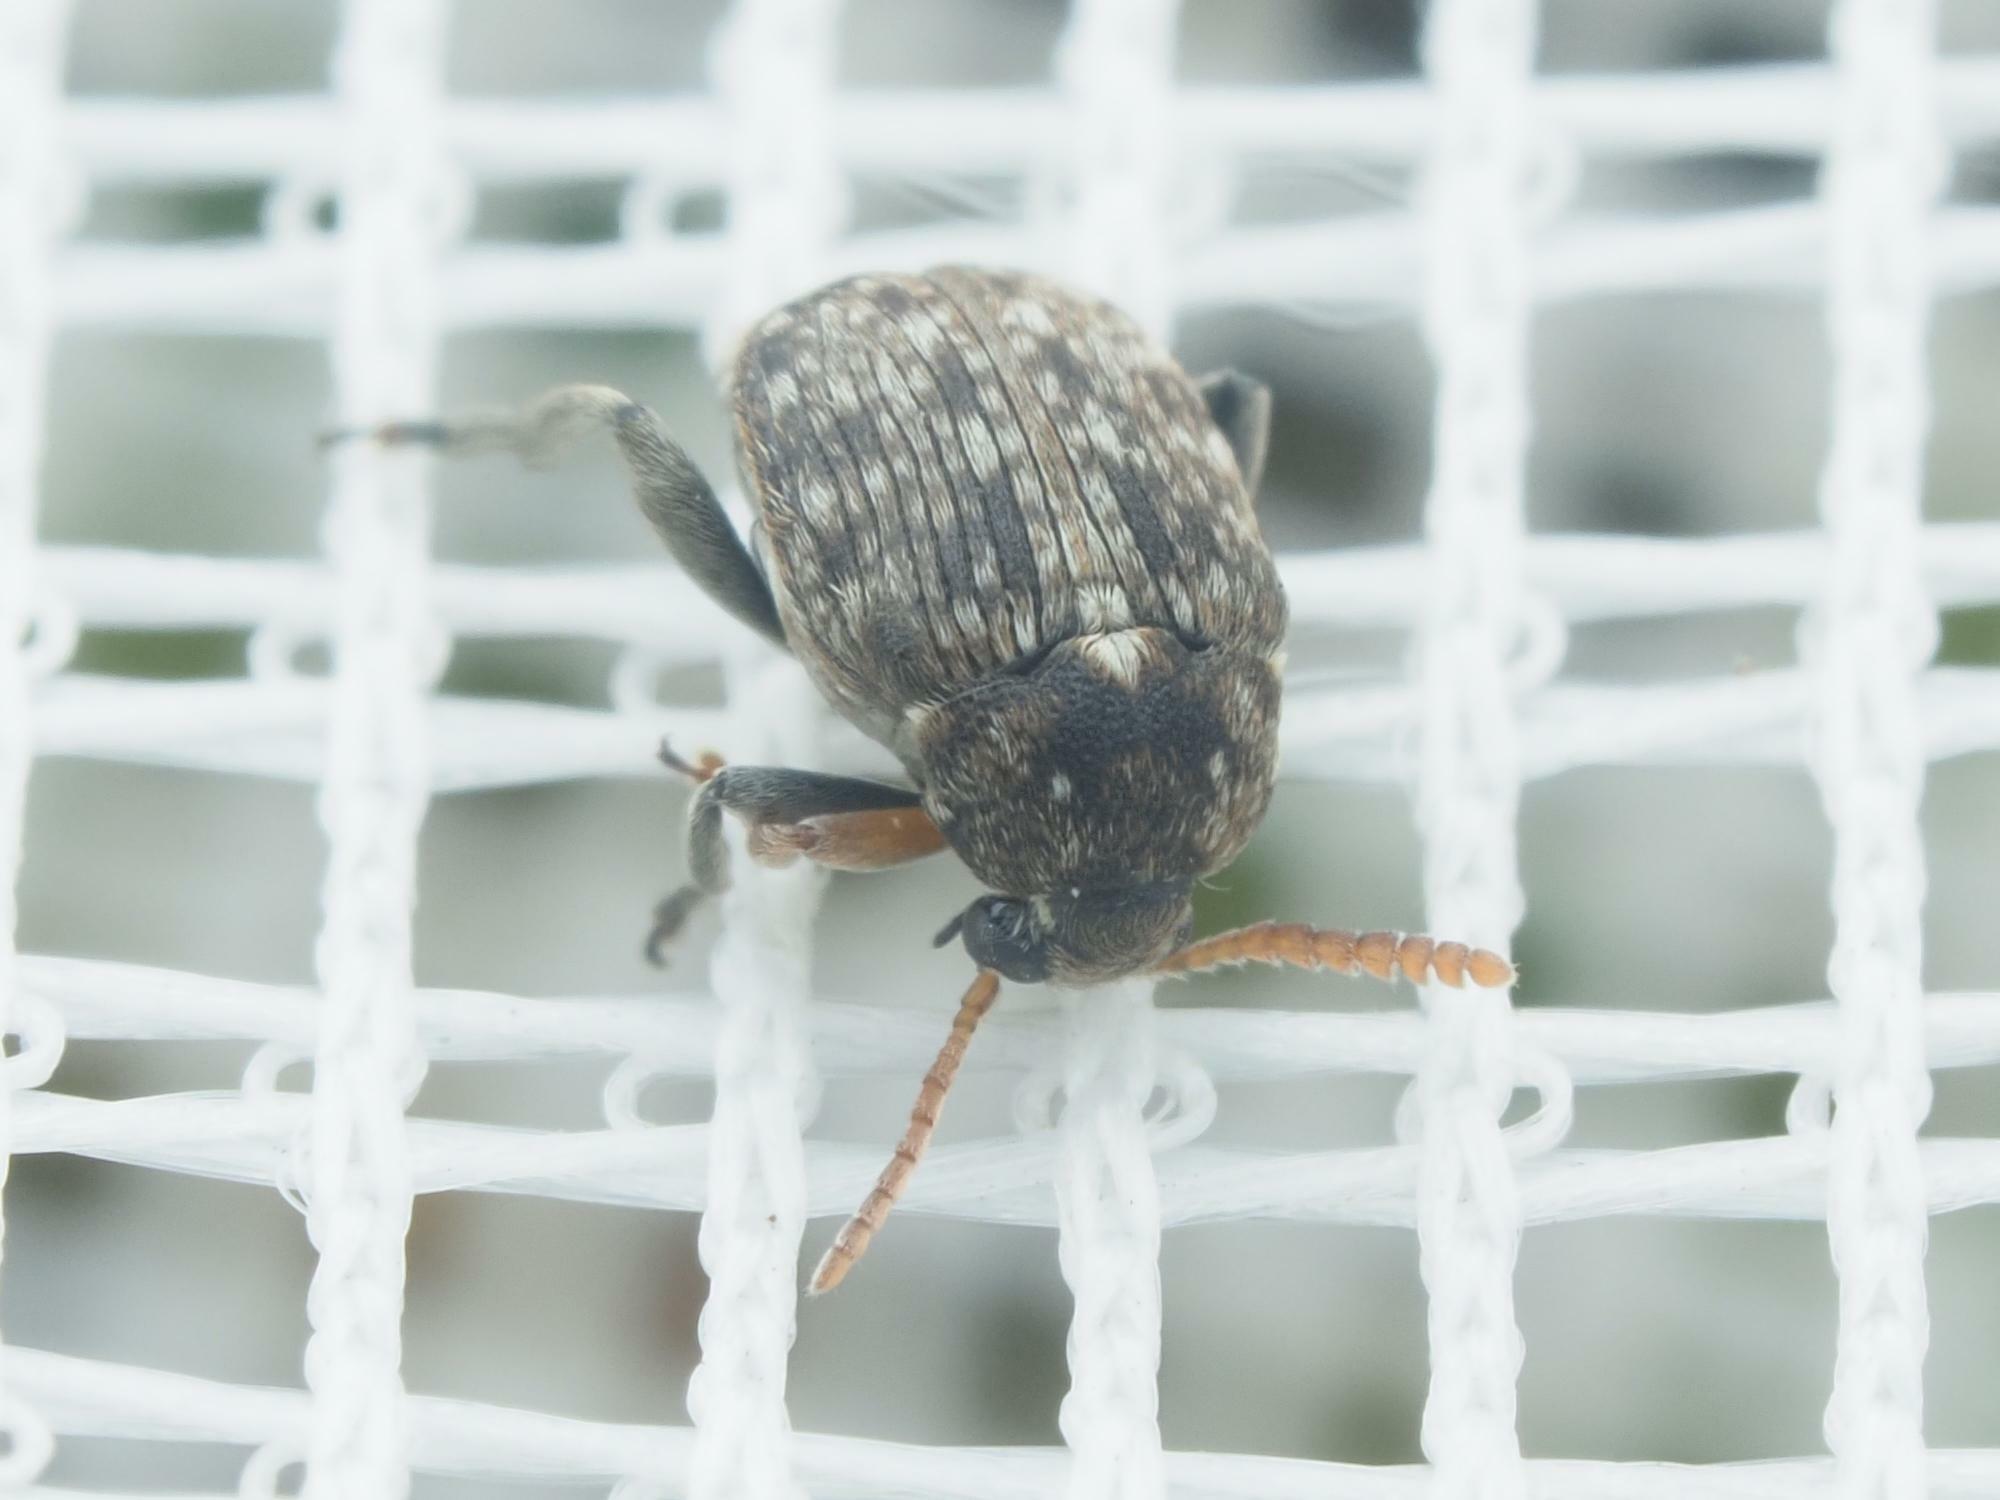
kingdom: Animalia
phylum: Arthropoda
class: Insecta
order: Coleoptera
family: Chrysomelidae
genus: Bruchus
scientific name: Bruchus brachialis
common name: Vetch bruchid
